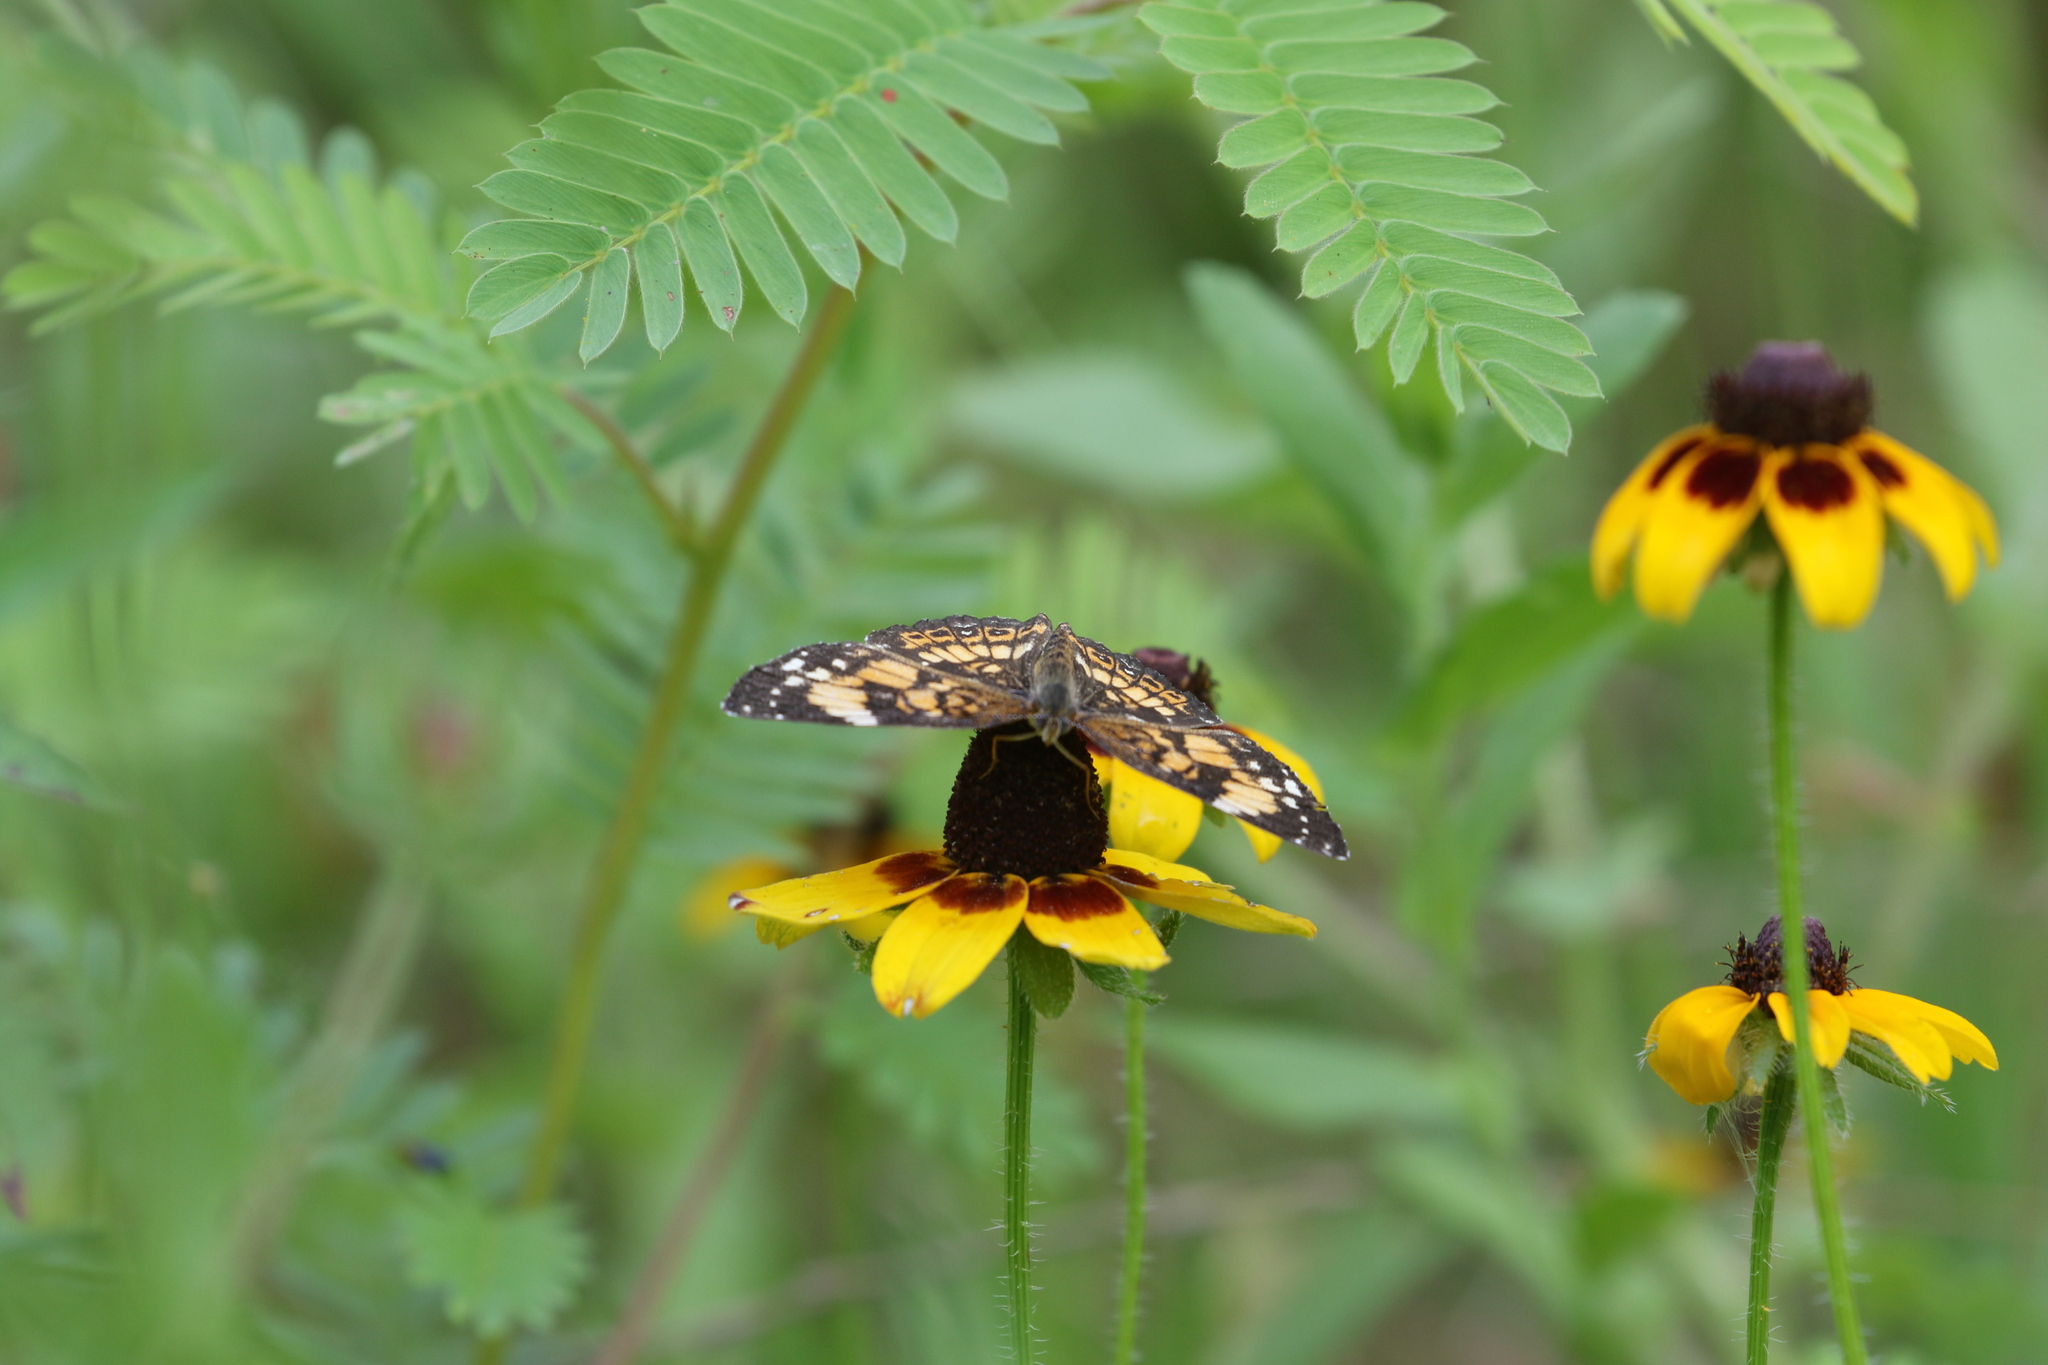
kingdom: Animalia
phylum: Arthropoda
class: Insecta
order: Lepidoptera
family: Nymphalidae
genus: Chlosyne
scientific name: Chlosyne nycteis
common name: Silvery checkerspot
